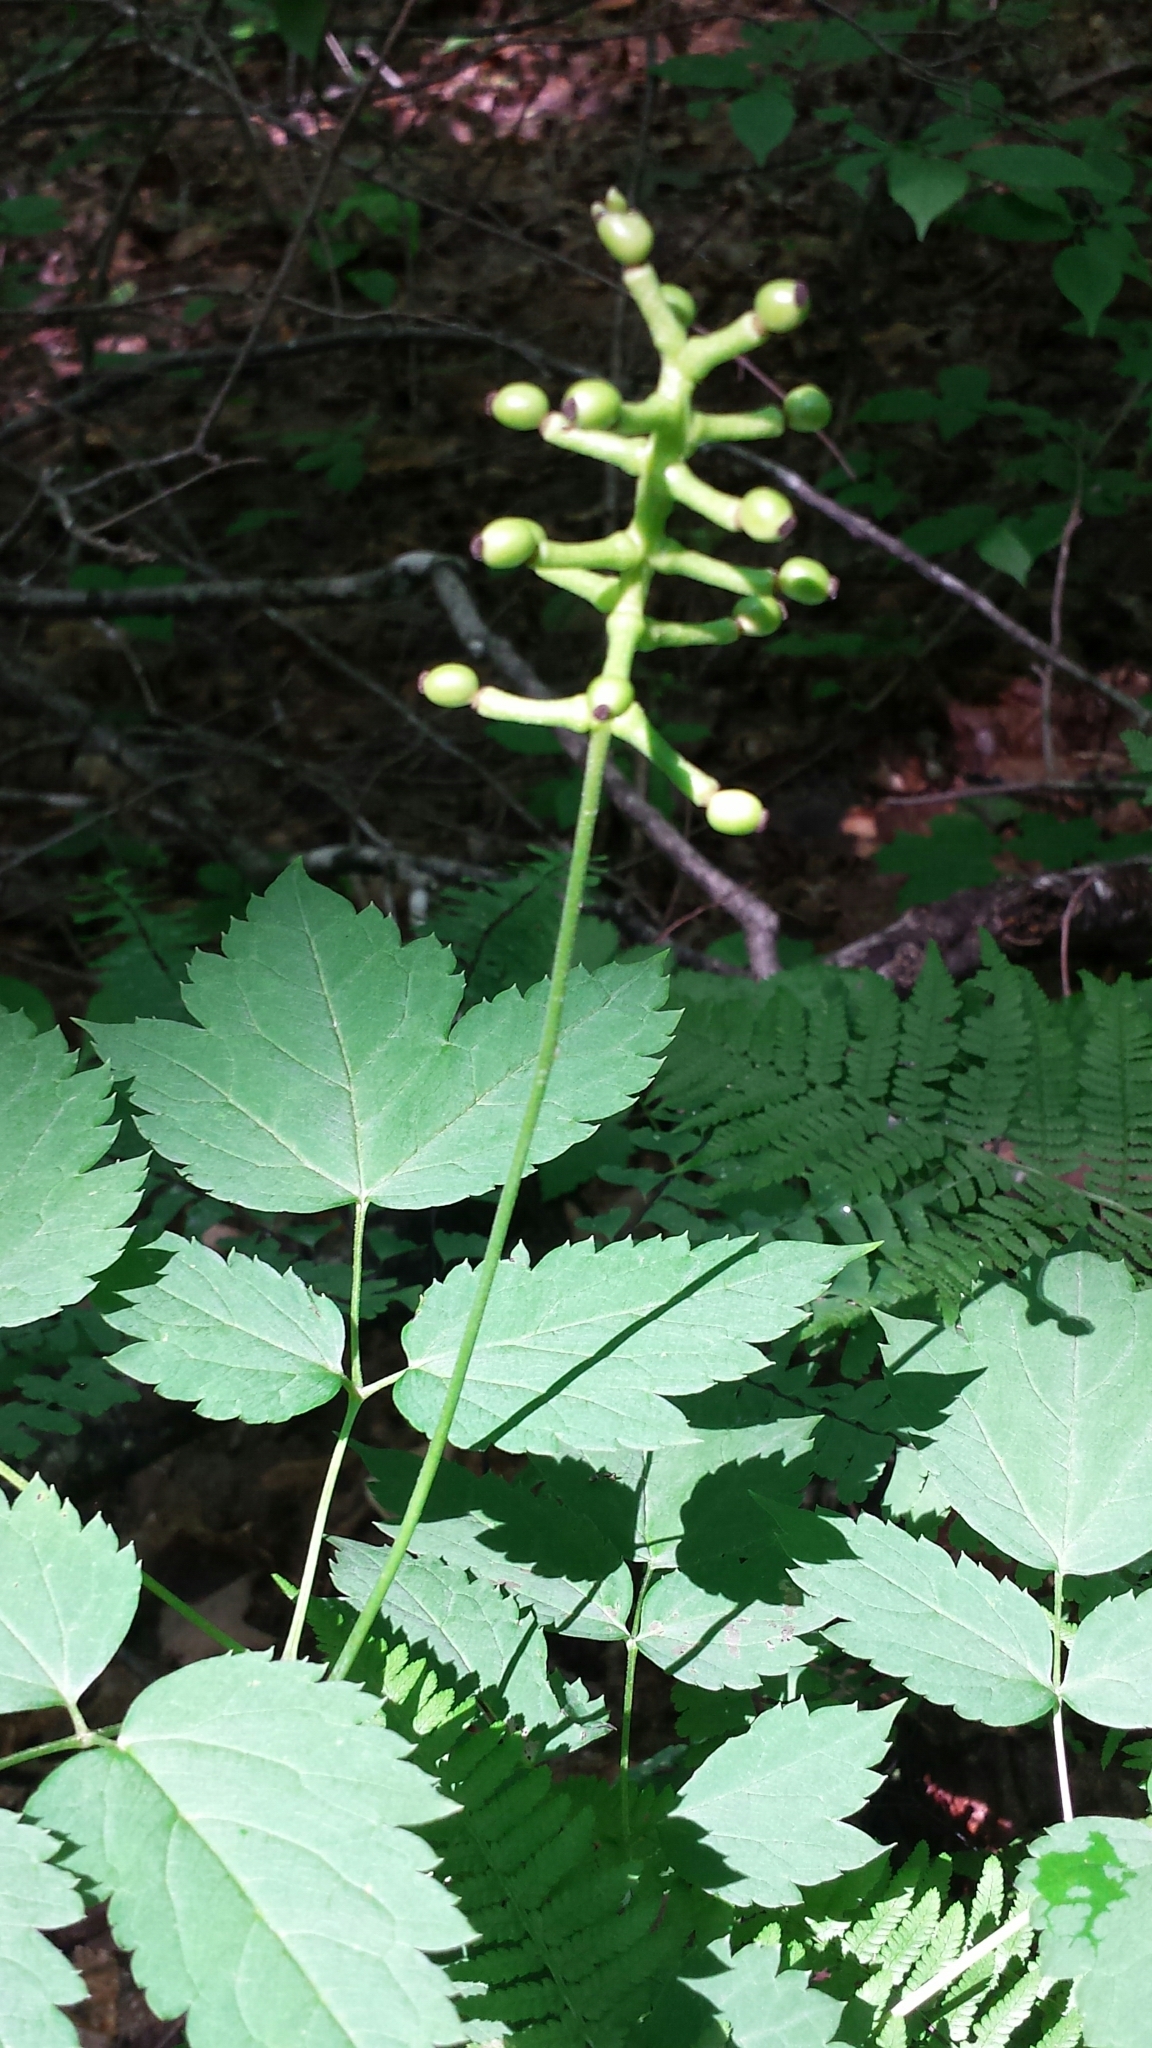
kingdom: Plantae
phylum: Tracheophyta
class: Magnoliopsida
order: Ranunculales
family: Ranunculaceae
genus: Actaea
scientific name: Actaea pachypoda
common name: Doll's-eyes
